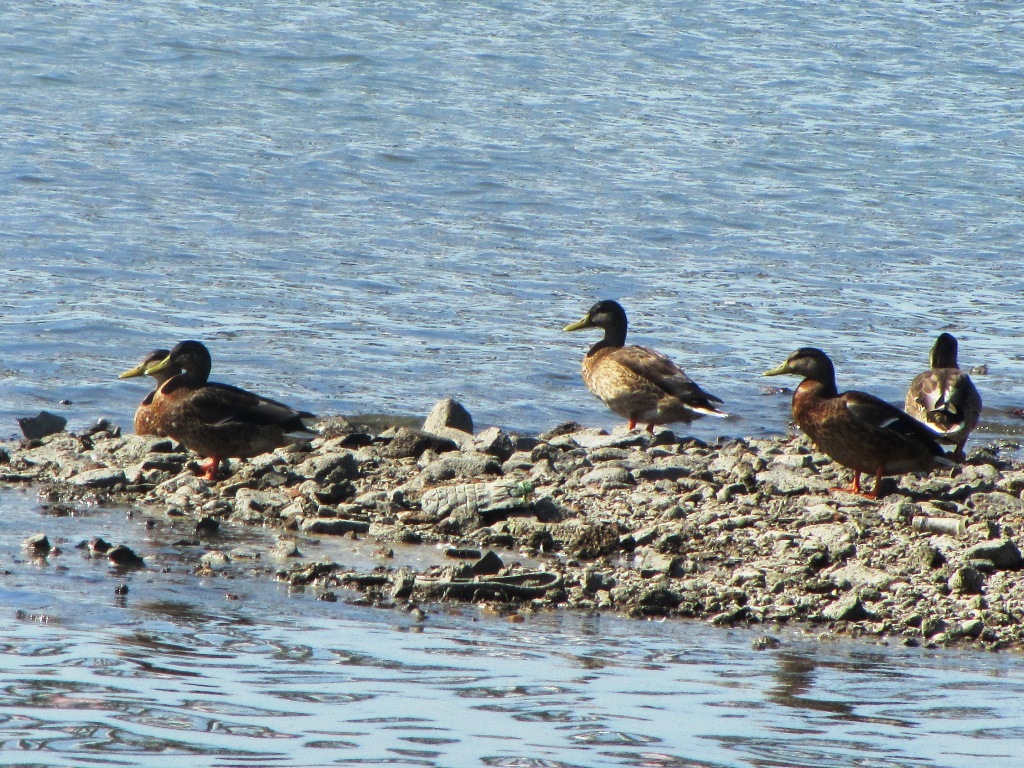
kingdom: Animalia
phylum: Chordata
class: Aves
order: Anseriformes
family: Anatidae
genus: Anas
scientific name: Anas platyrhynchos
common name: Mallard
